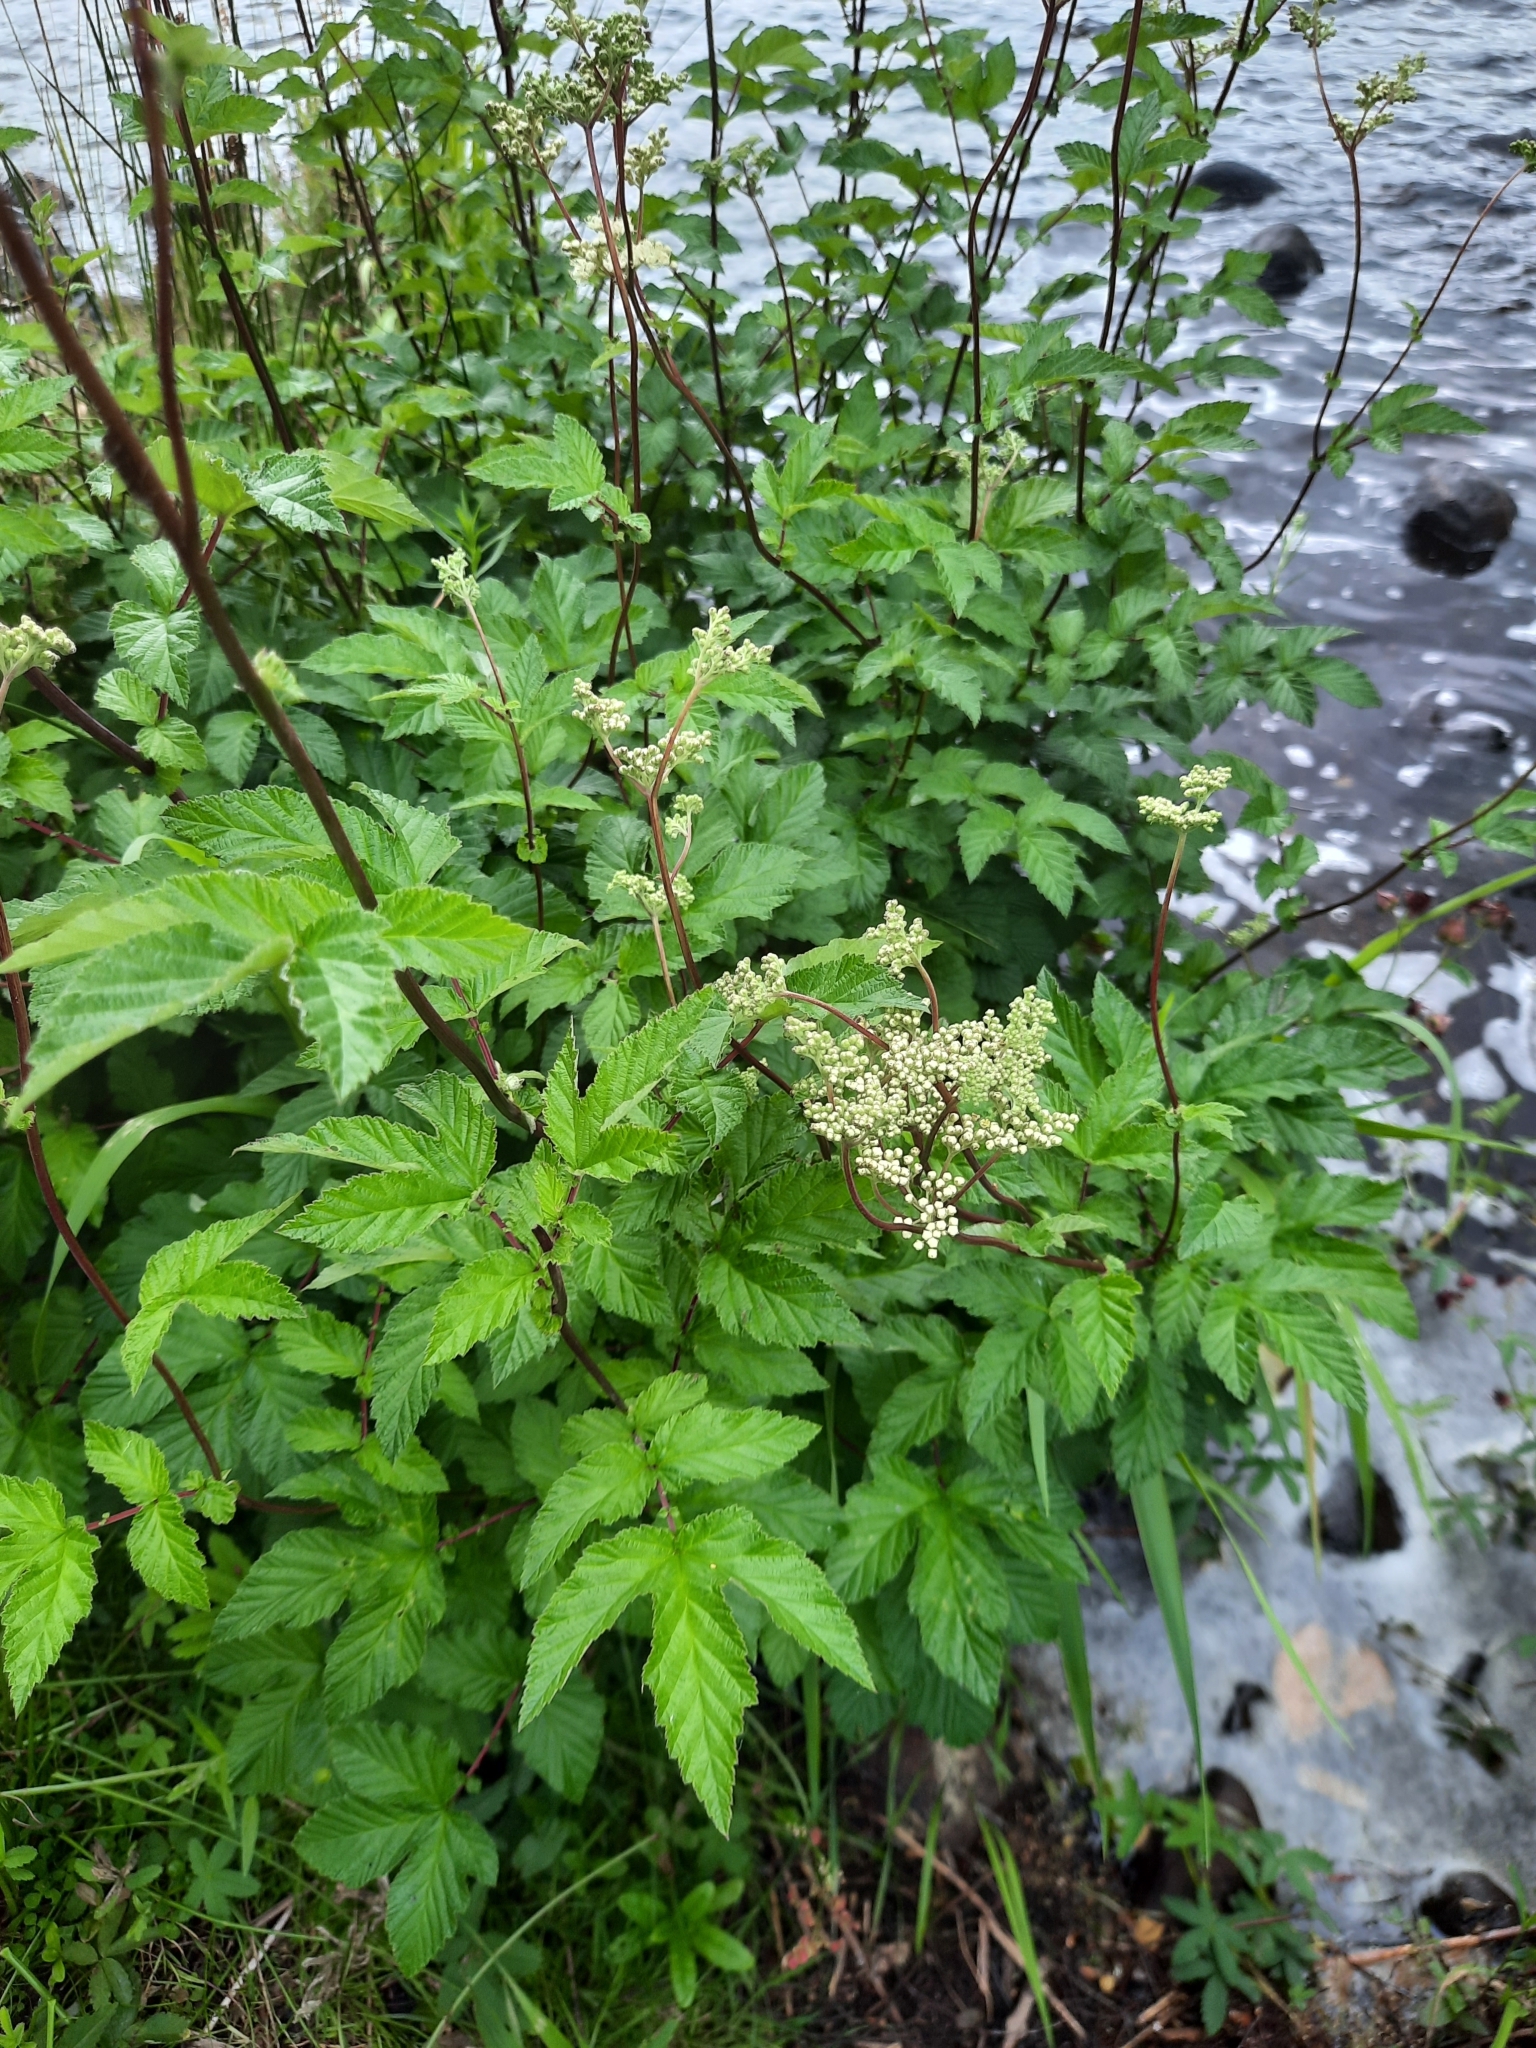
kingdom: Plantae
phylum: Tracheophyta
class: Magnoliopsida
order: Rosales
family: Rosaceae
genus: Filipendula
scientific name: Filipendula ulmaria
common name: Meadowsweet
